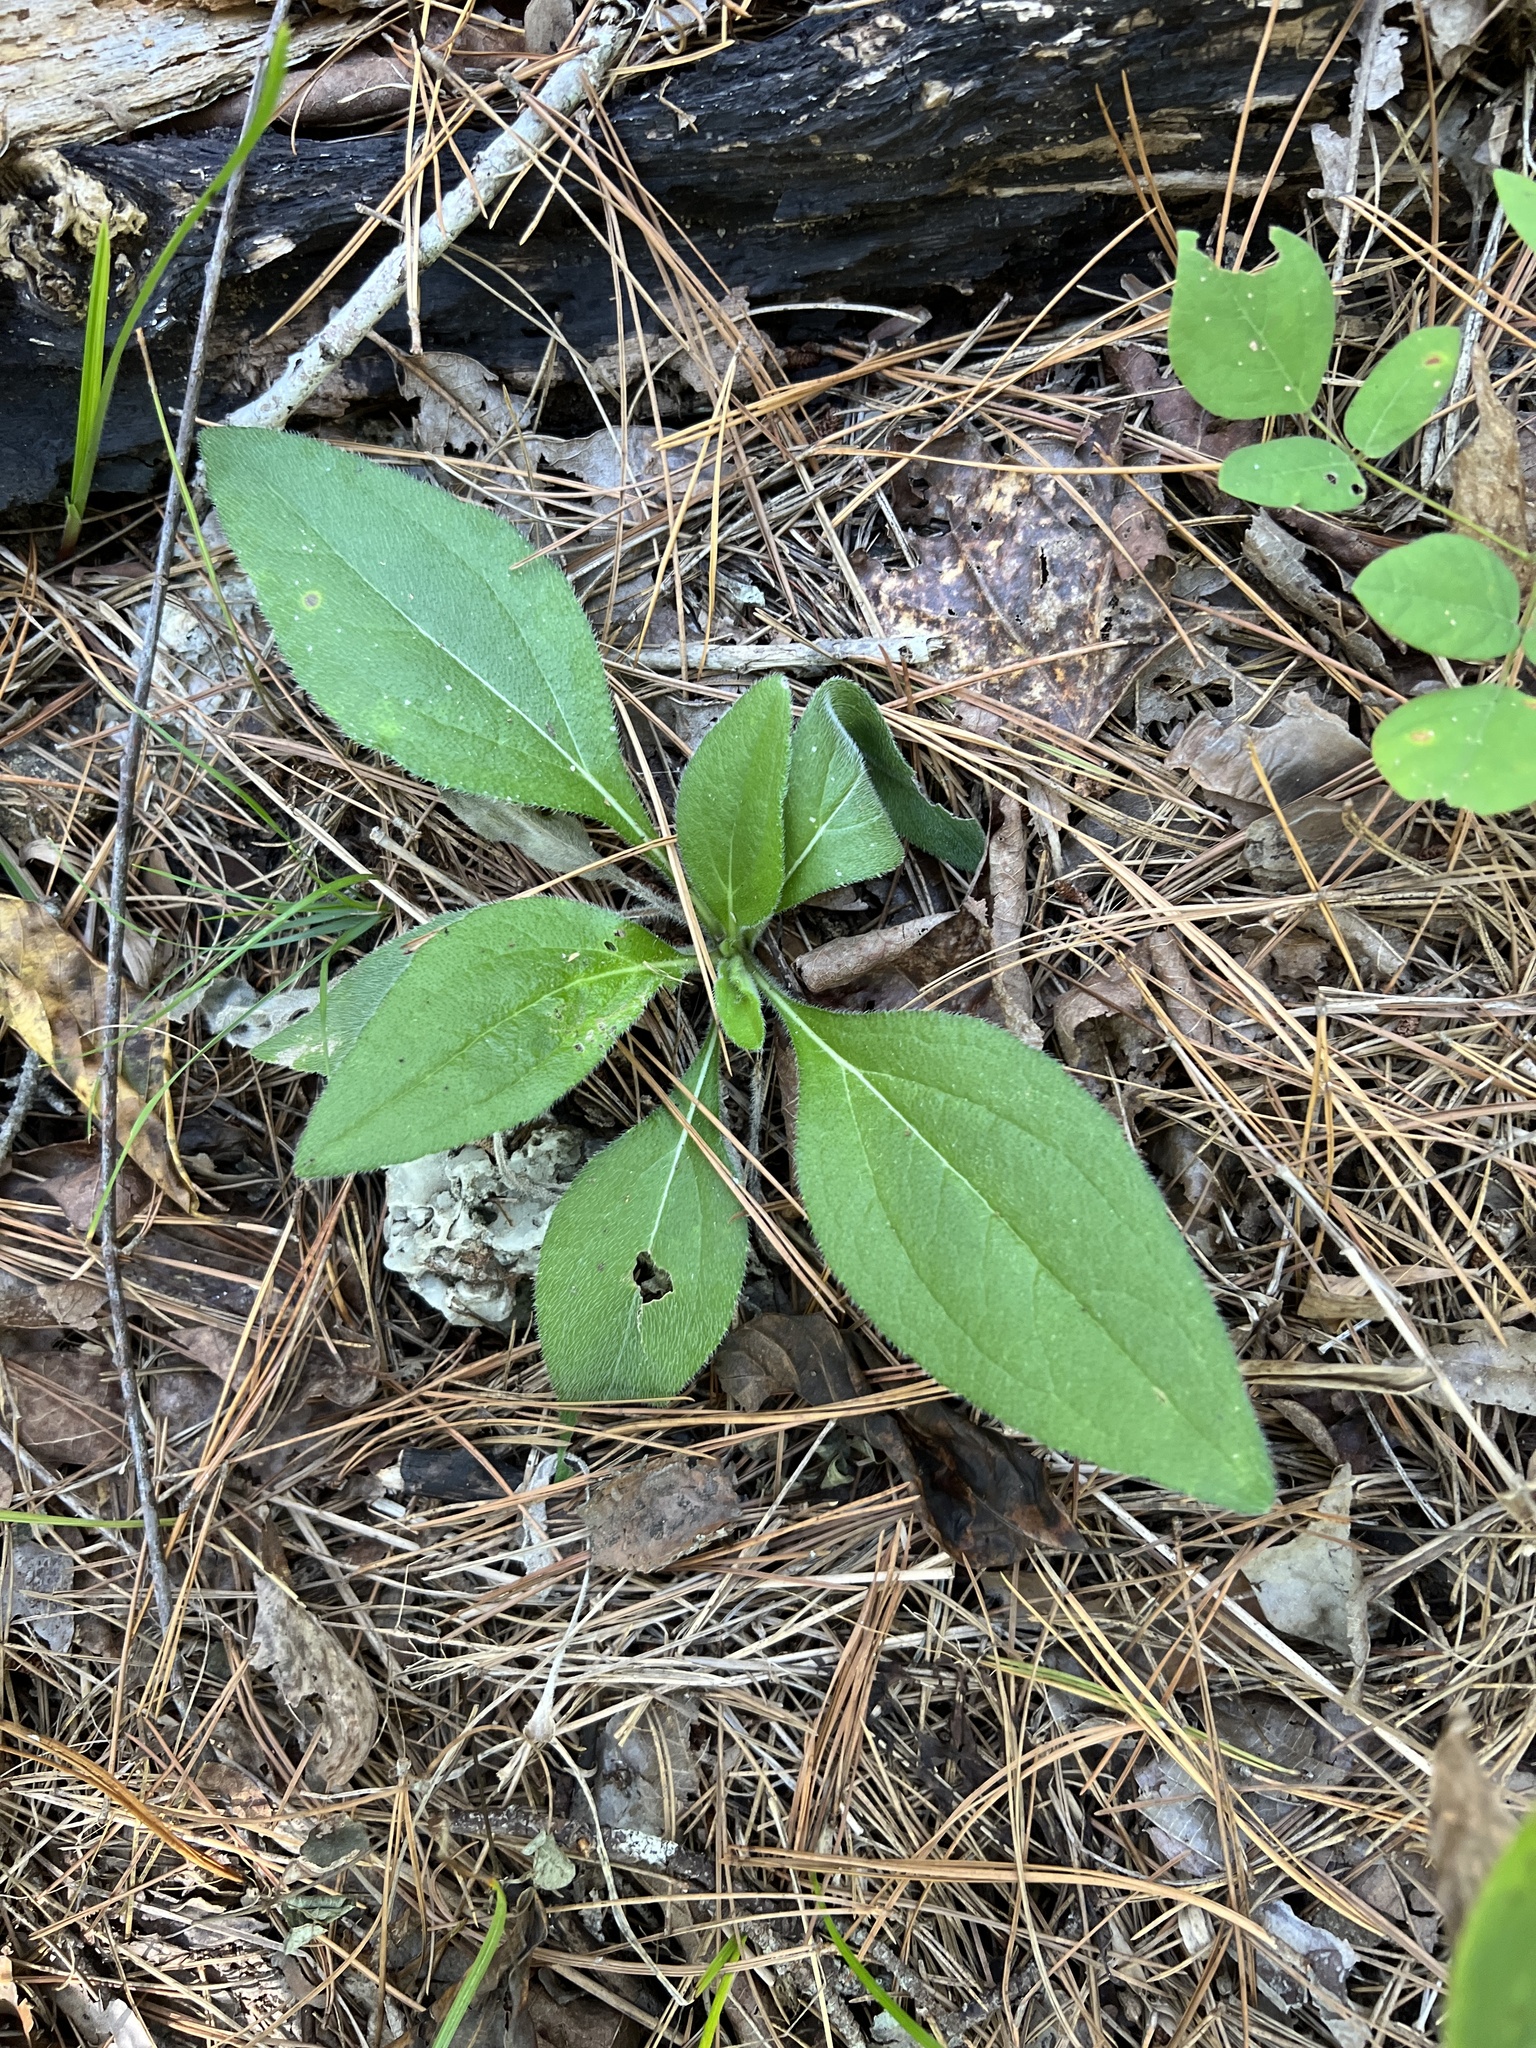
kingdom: Plantae
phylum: Tracheophyta
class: Magnoliopsida
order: Asterales
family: Asteraceae
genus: Rudbeckia
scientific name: Rudbeckia hirta
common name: Black-eyed-susan
